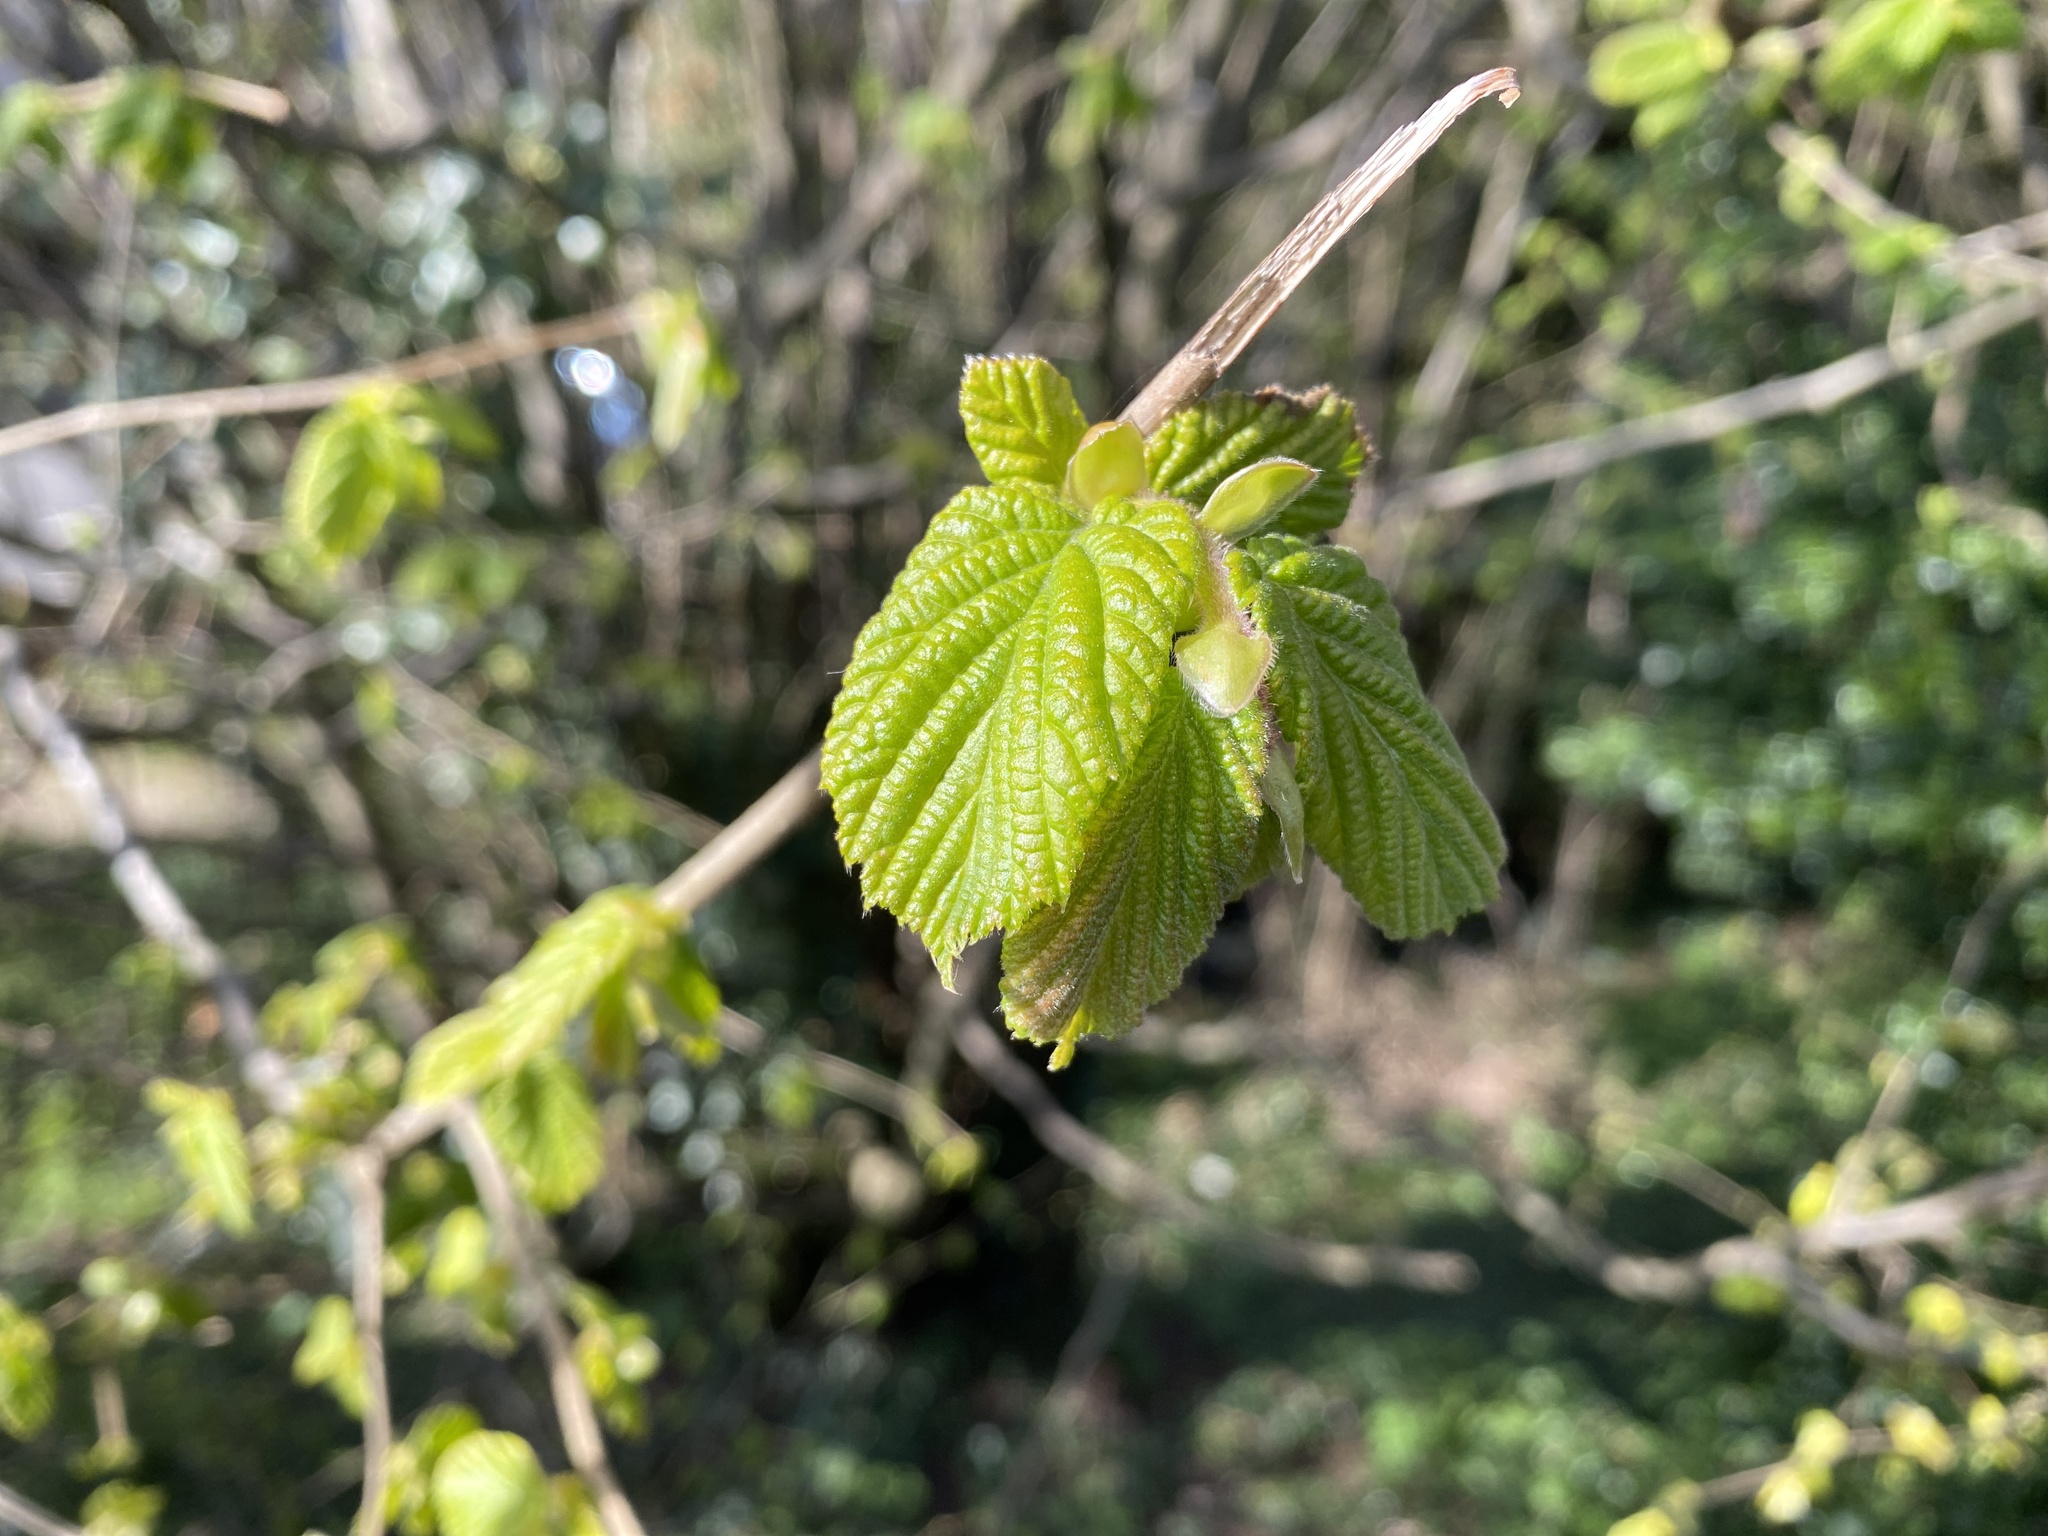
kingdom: Plantae
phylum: Tracheophyta
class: Magnoliopsida
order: Fagales
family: Betulaceae
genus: Corylus
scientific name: Corylus avellana
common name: European hazel
